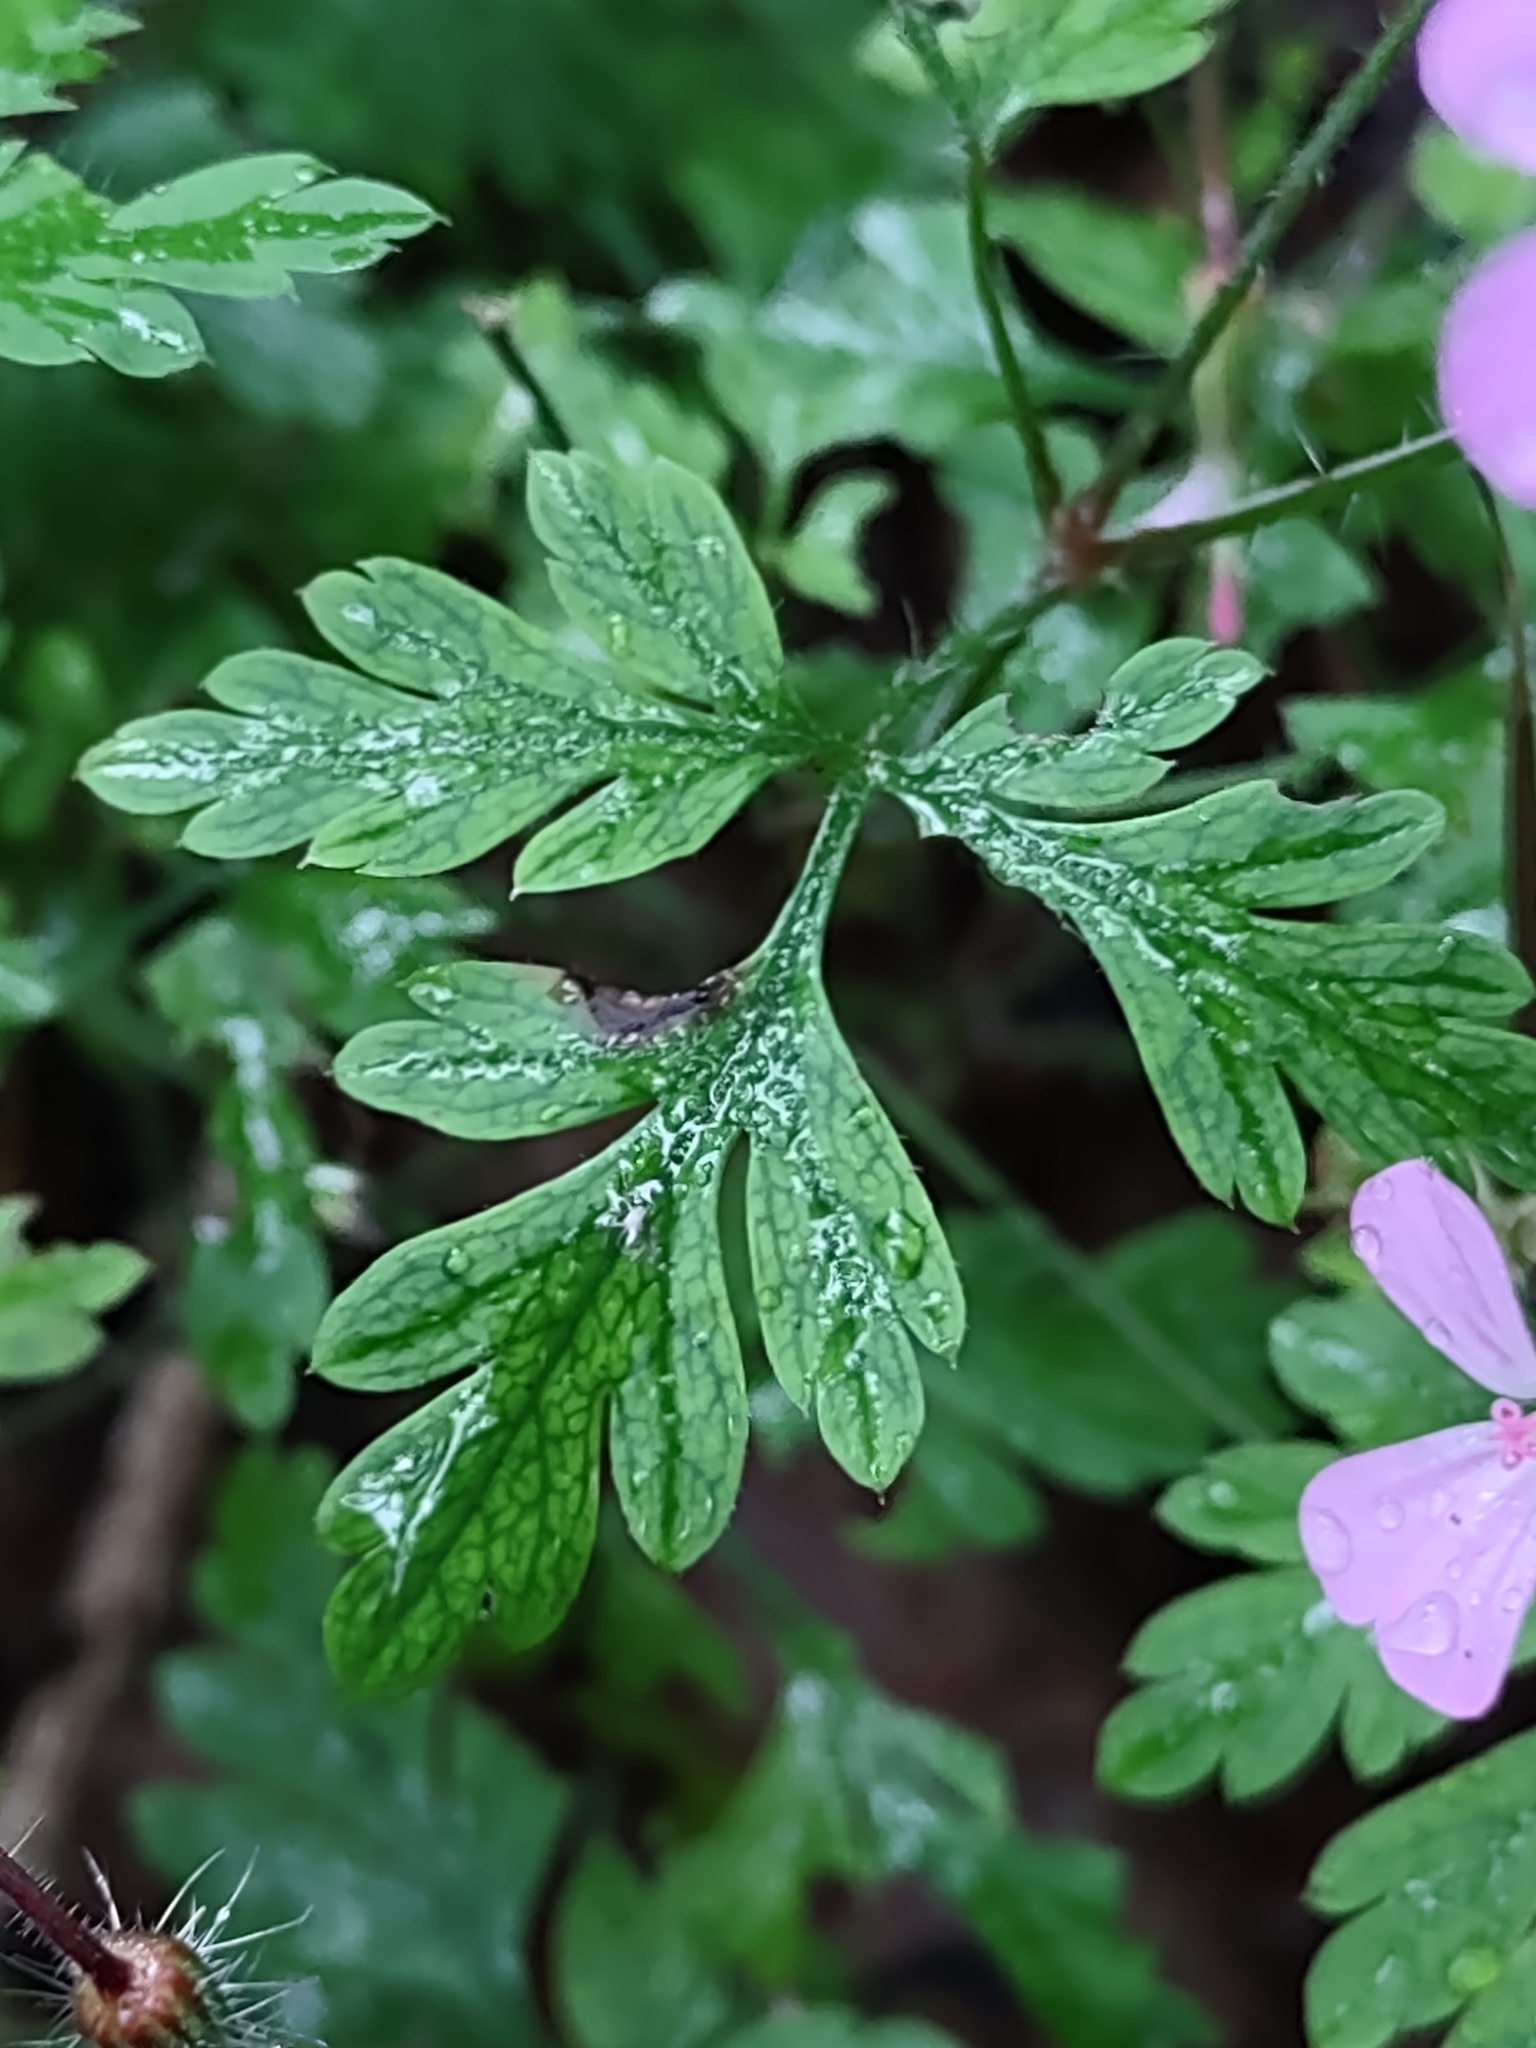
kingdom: Plantae
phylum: Tracheophyta
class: Magnoliopsida
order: Geraniales
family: Geraniaceae
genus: Geranium
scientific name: Geranium robertianum
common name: Herb-robert
